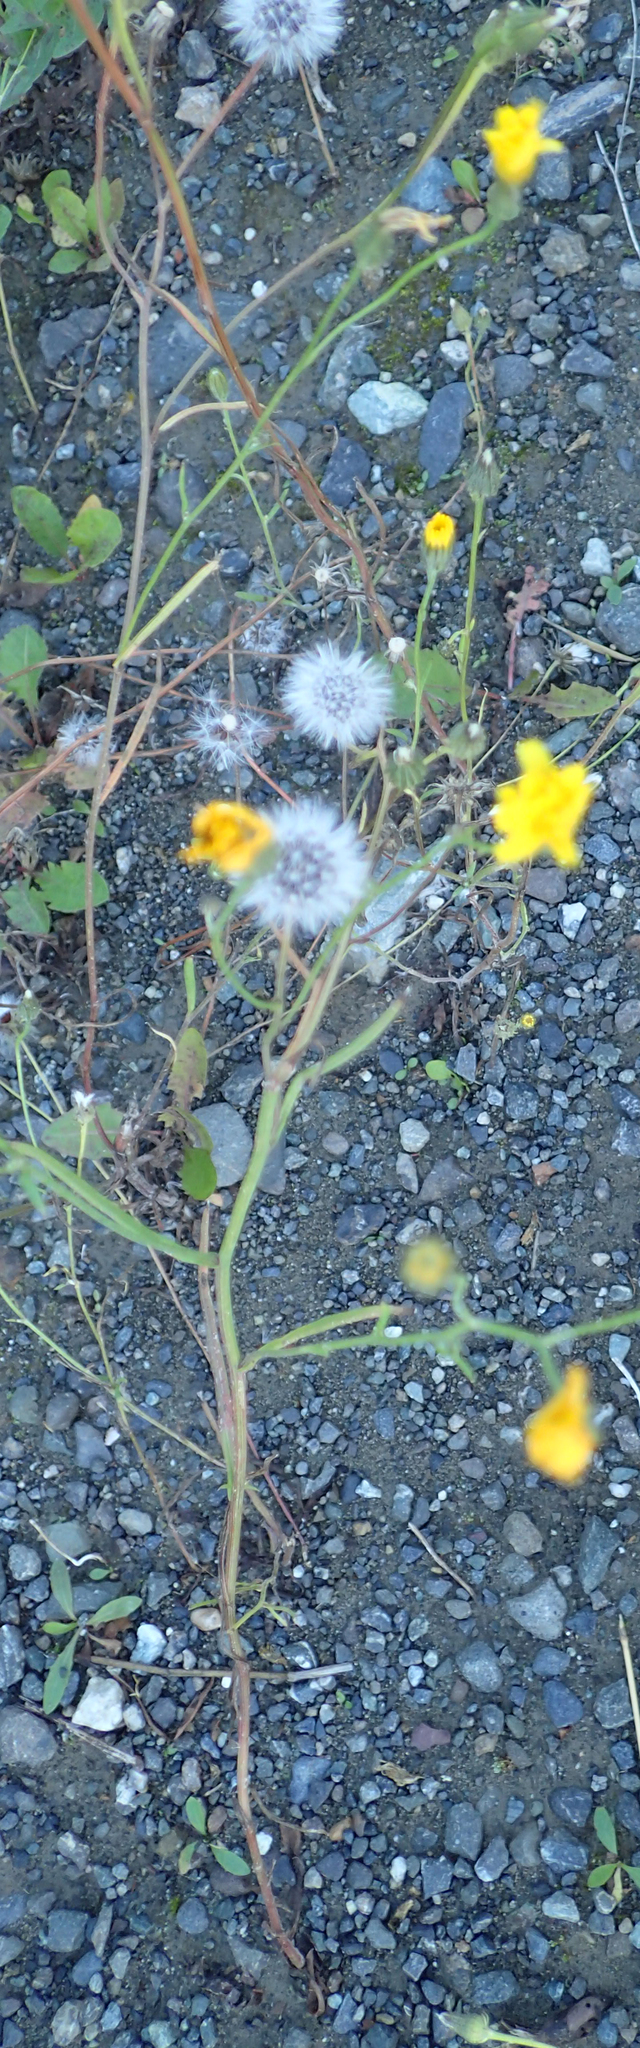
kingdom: Plantae
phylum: Tracheophyta
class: Magnoliopsida
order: Asterales
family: Asteraceae
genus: Crepis
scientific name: Crepis tectorum
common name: Narrow-leaved hawk's-beard
